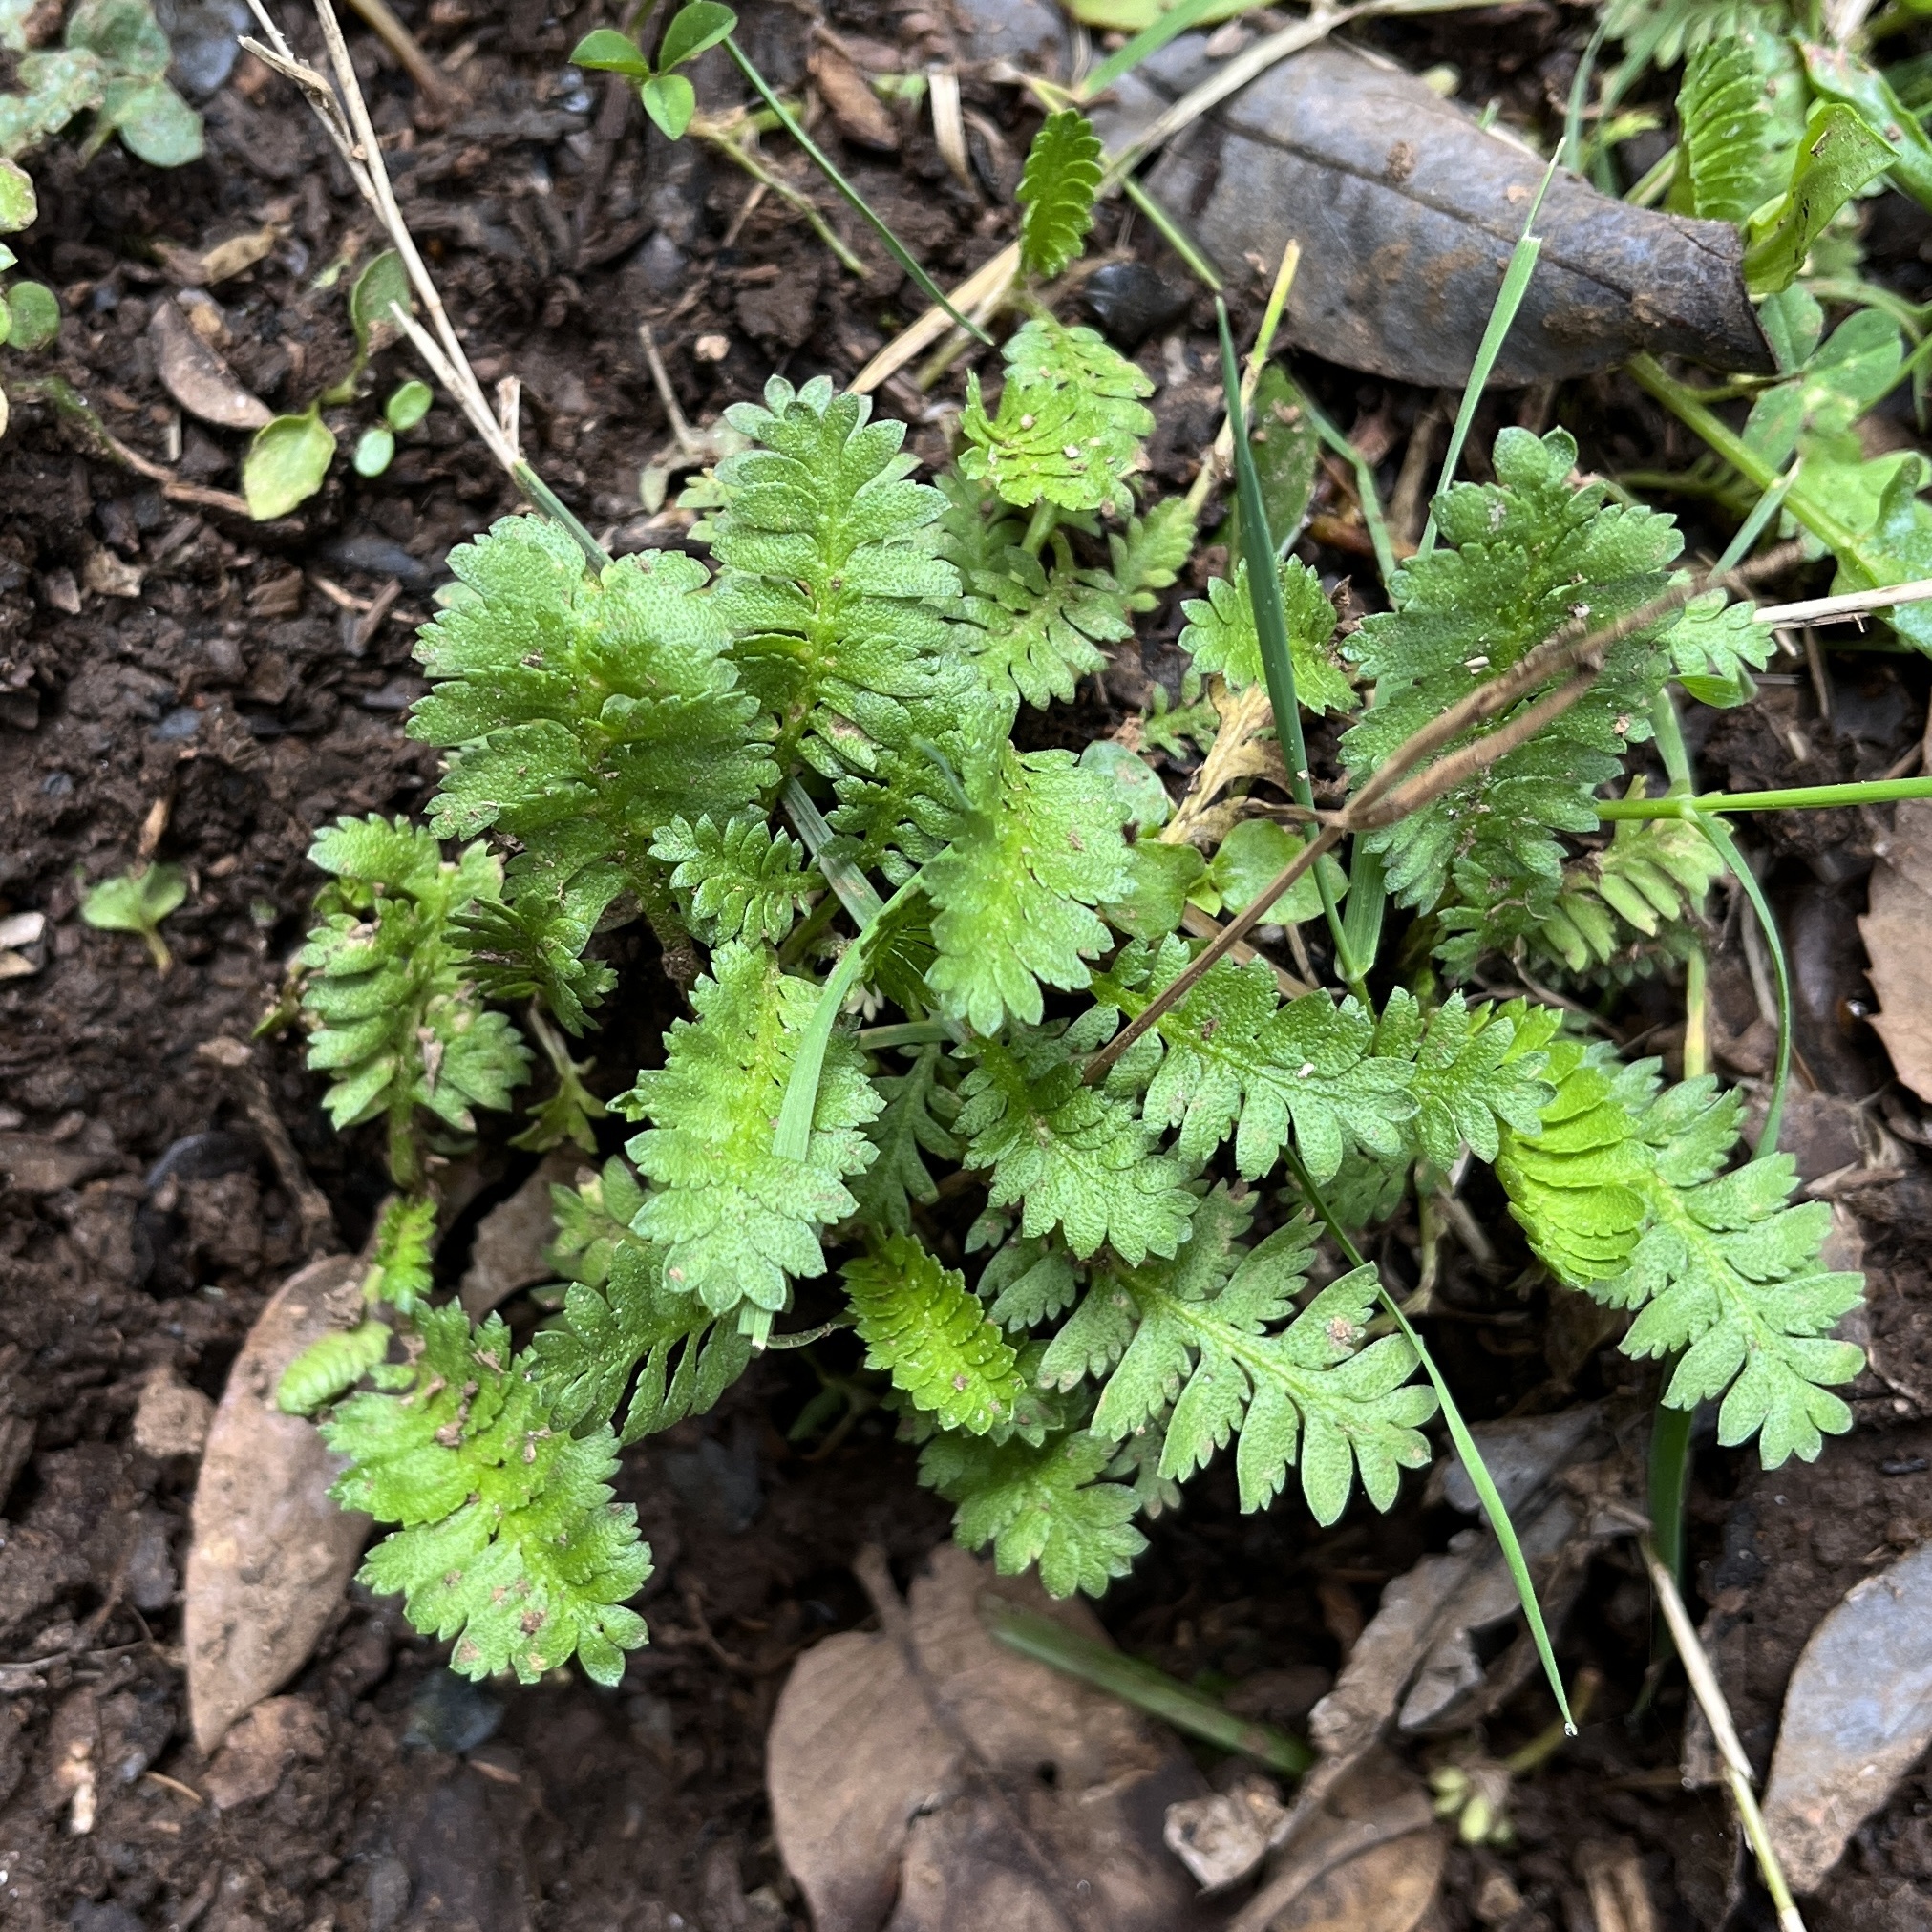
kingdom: Plantae
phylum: Tracheophyta
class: Magnoliopsida
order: Asterales
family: Asteraceae
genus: Leptinella
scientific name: Leptinella scariosa
